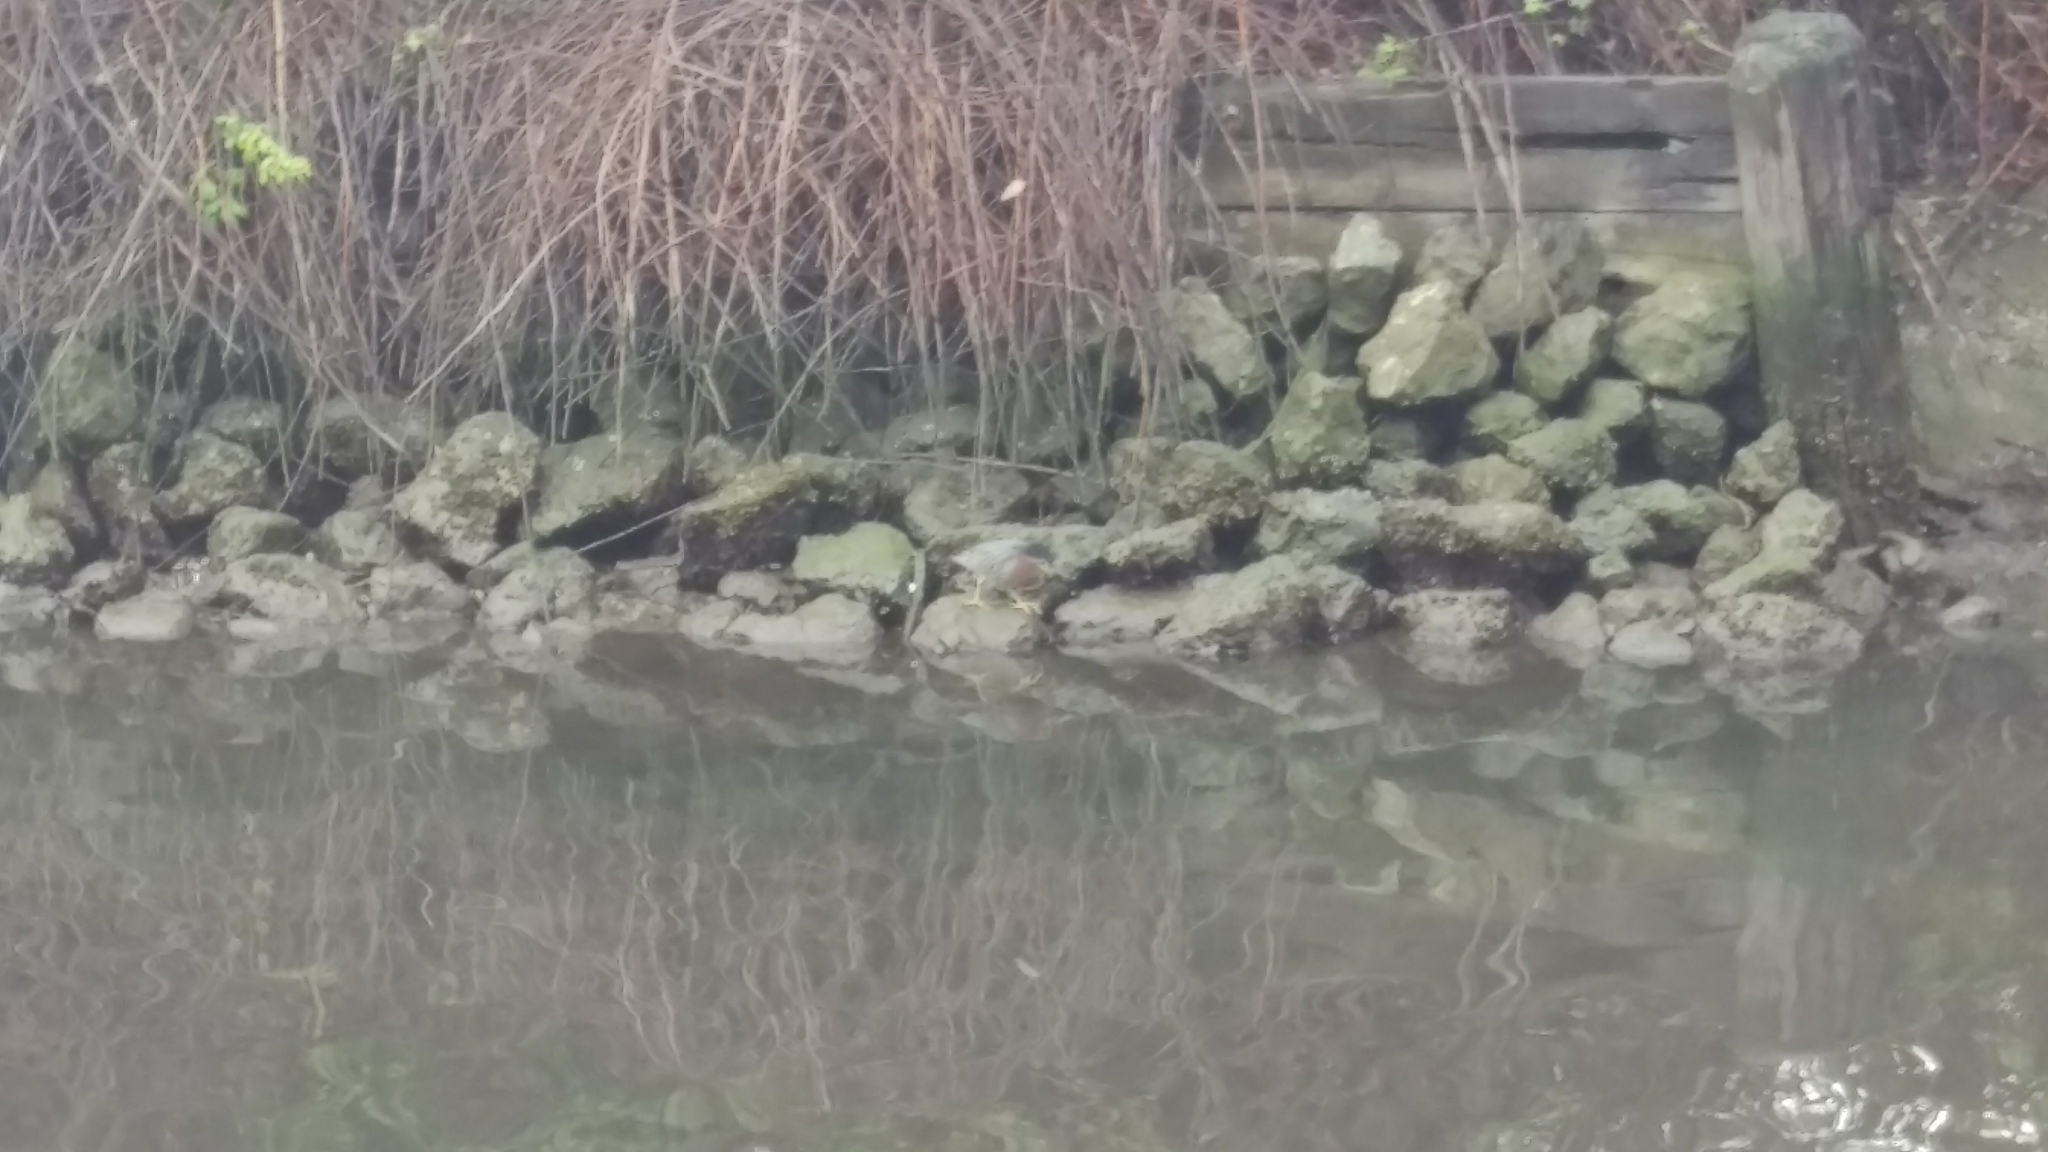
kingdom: Animalia
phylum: Chordata
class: Aves
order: Pelecaniformes
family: Ardeidae
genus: Butorides
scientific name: Butorides virescens
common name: Green heron
